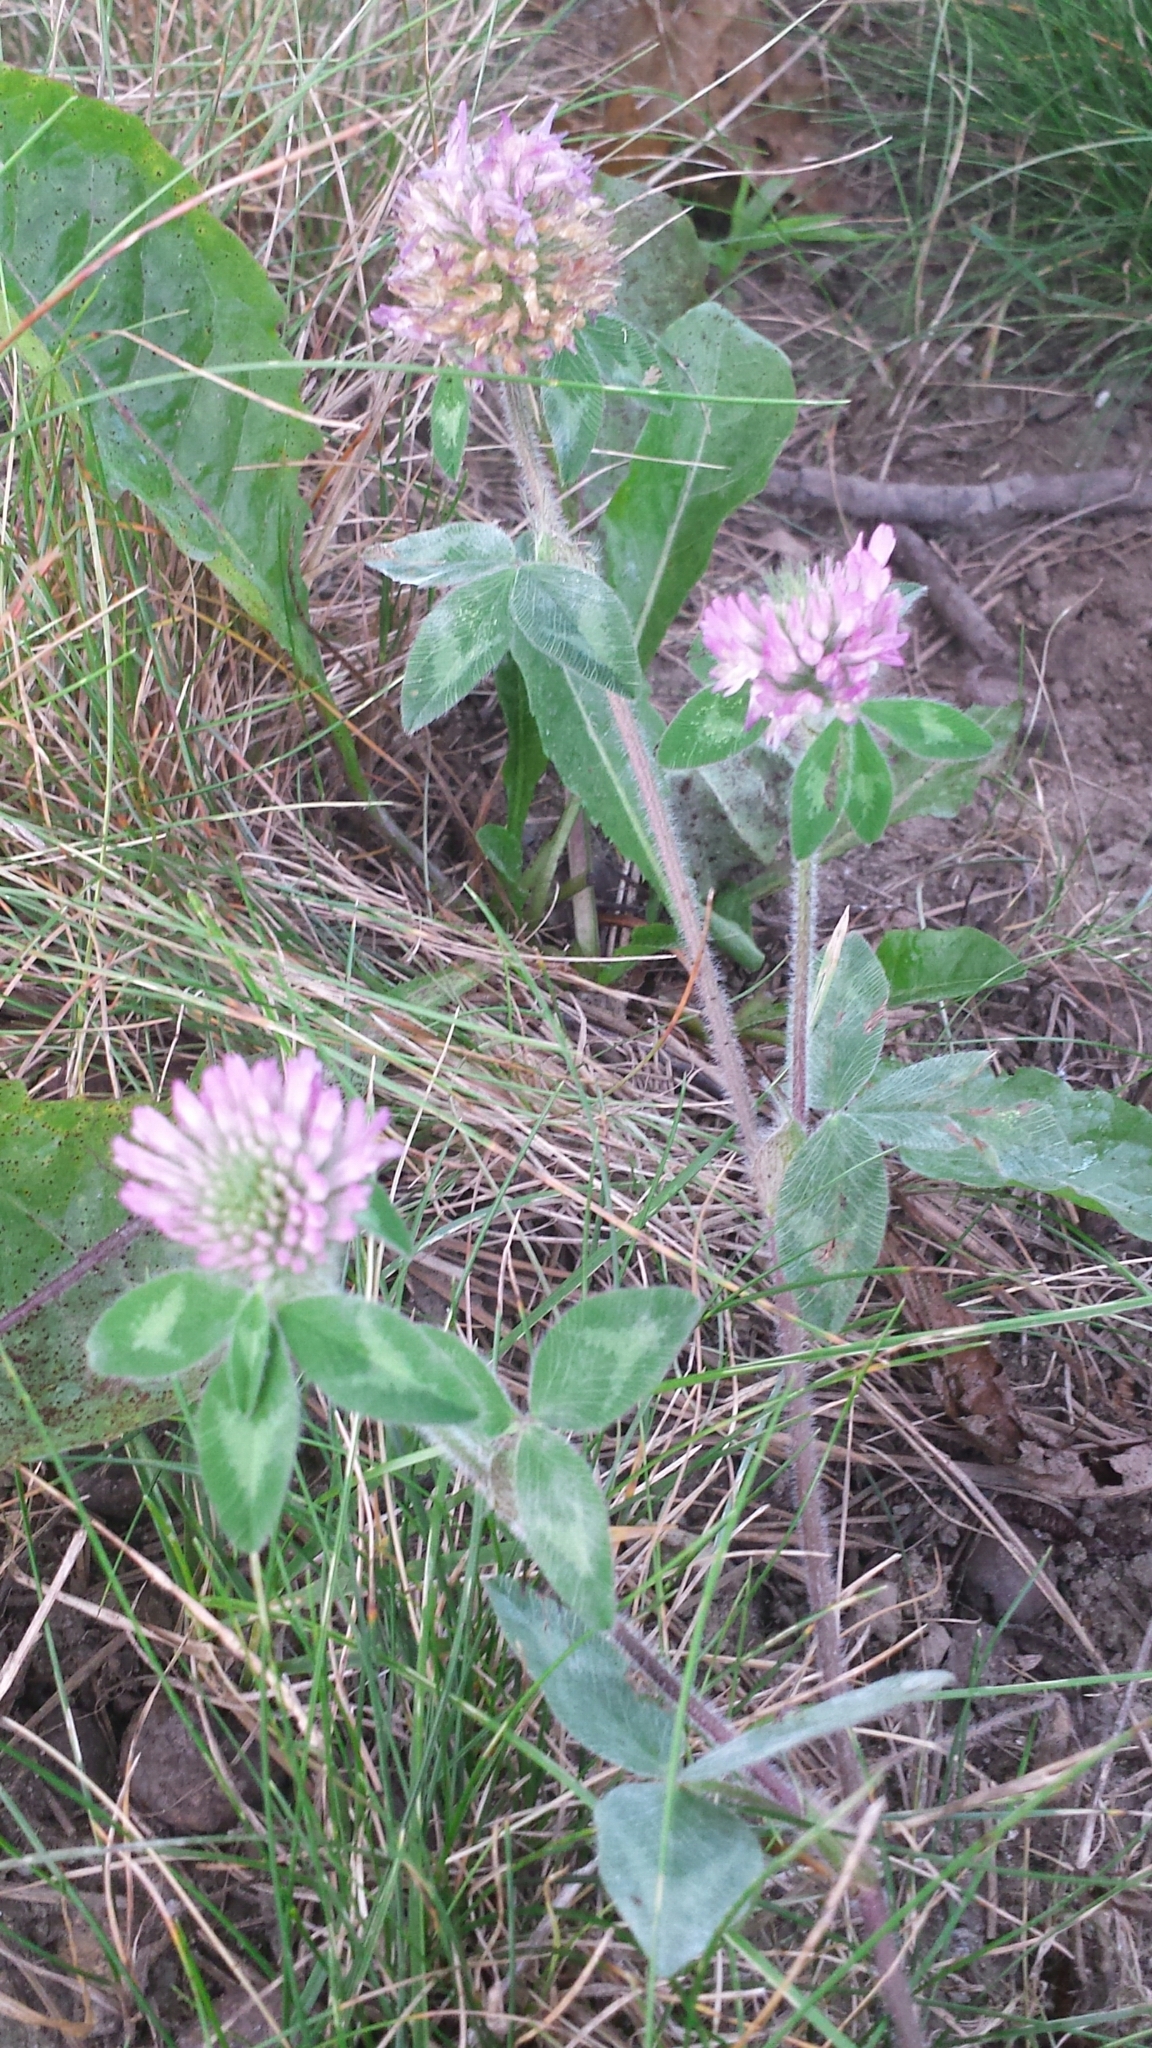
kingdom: Plantae
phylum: Tracheophyta
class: Magnoliopsida
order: Fabales
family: Fabaceae
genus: Trifolium
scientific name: Trifolium pratense
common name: Red clover
